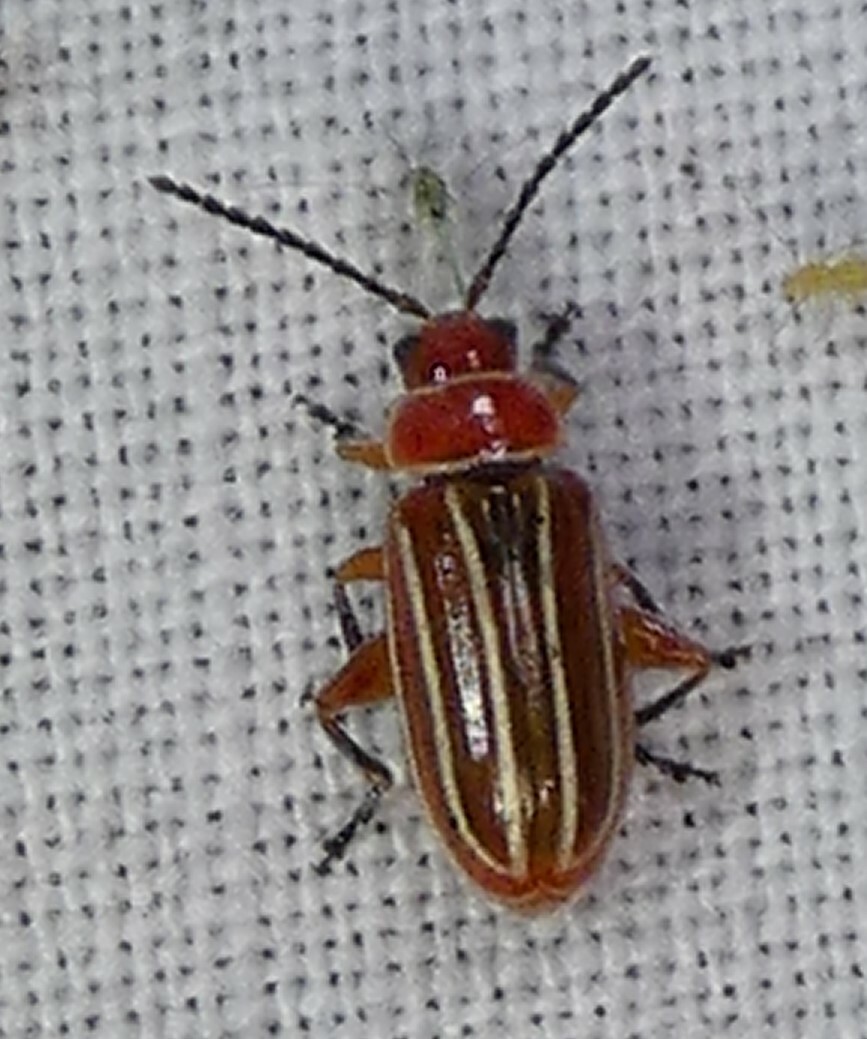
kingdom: Animalia
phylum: Arthropoda
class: Insecta
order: Coleoptera
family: Chrysomelidae
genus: Disonycha
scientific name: Disonycha conjugata
